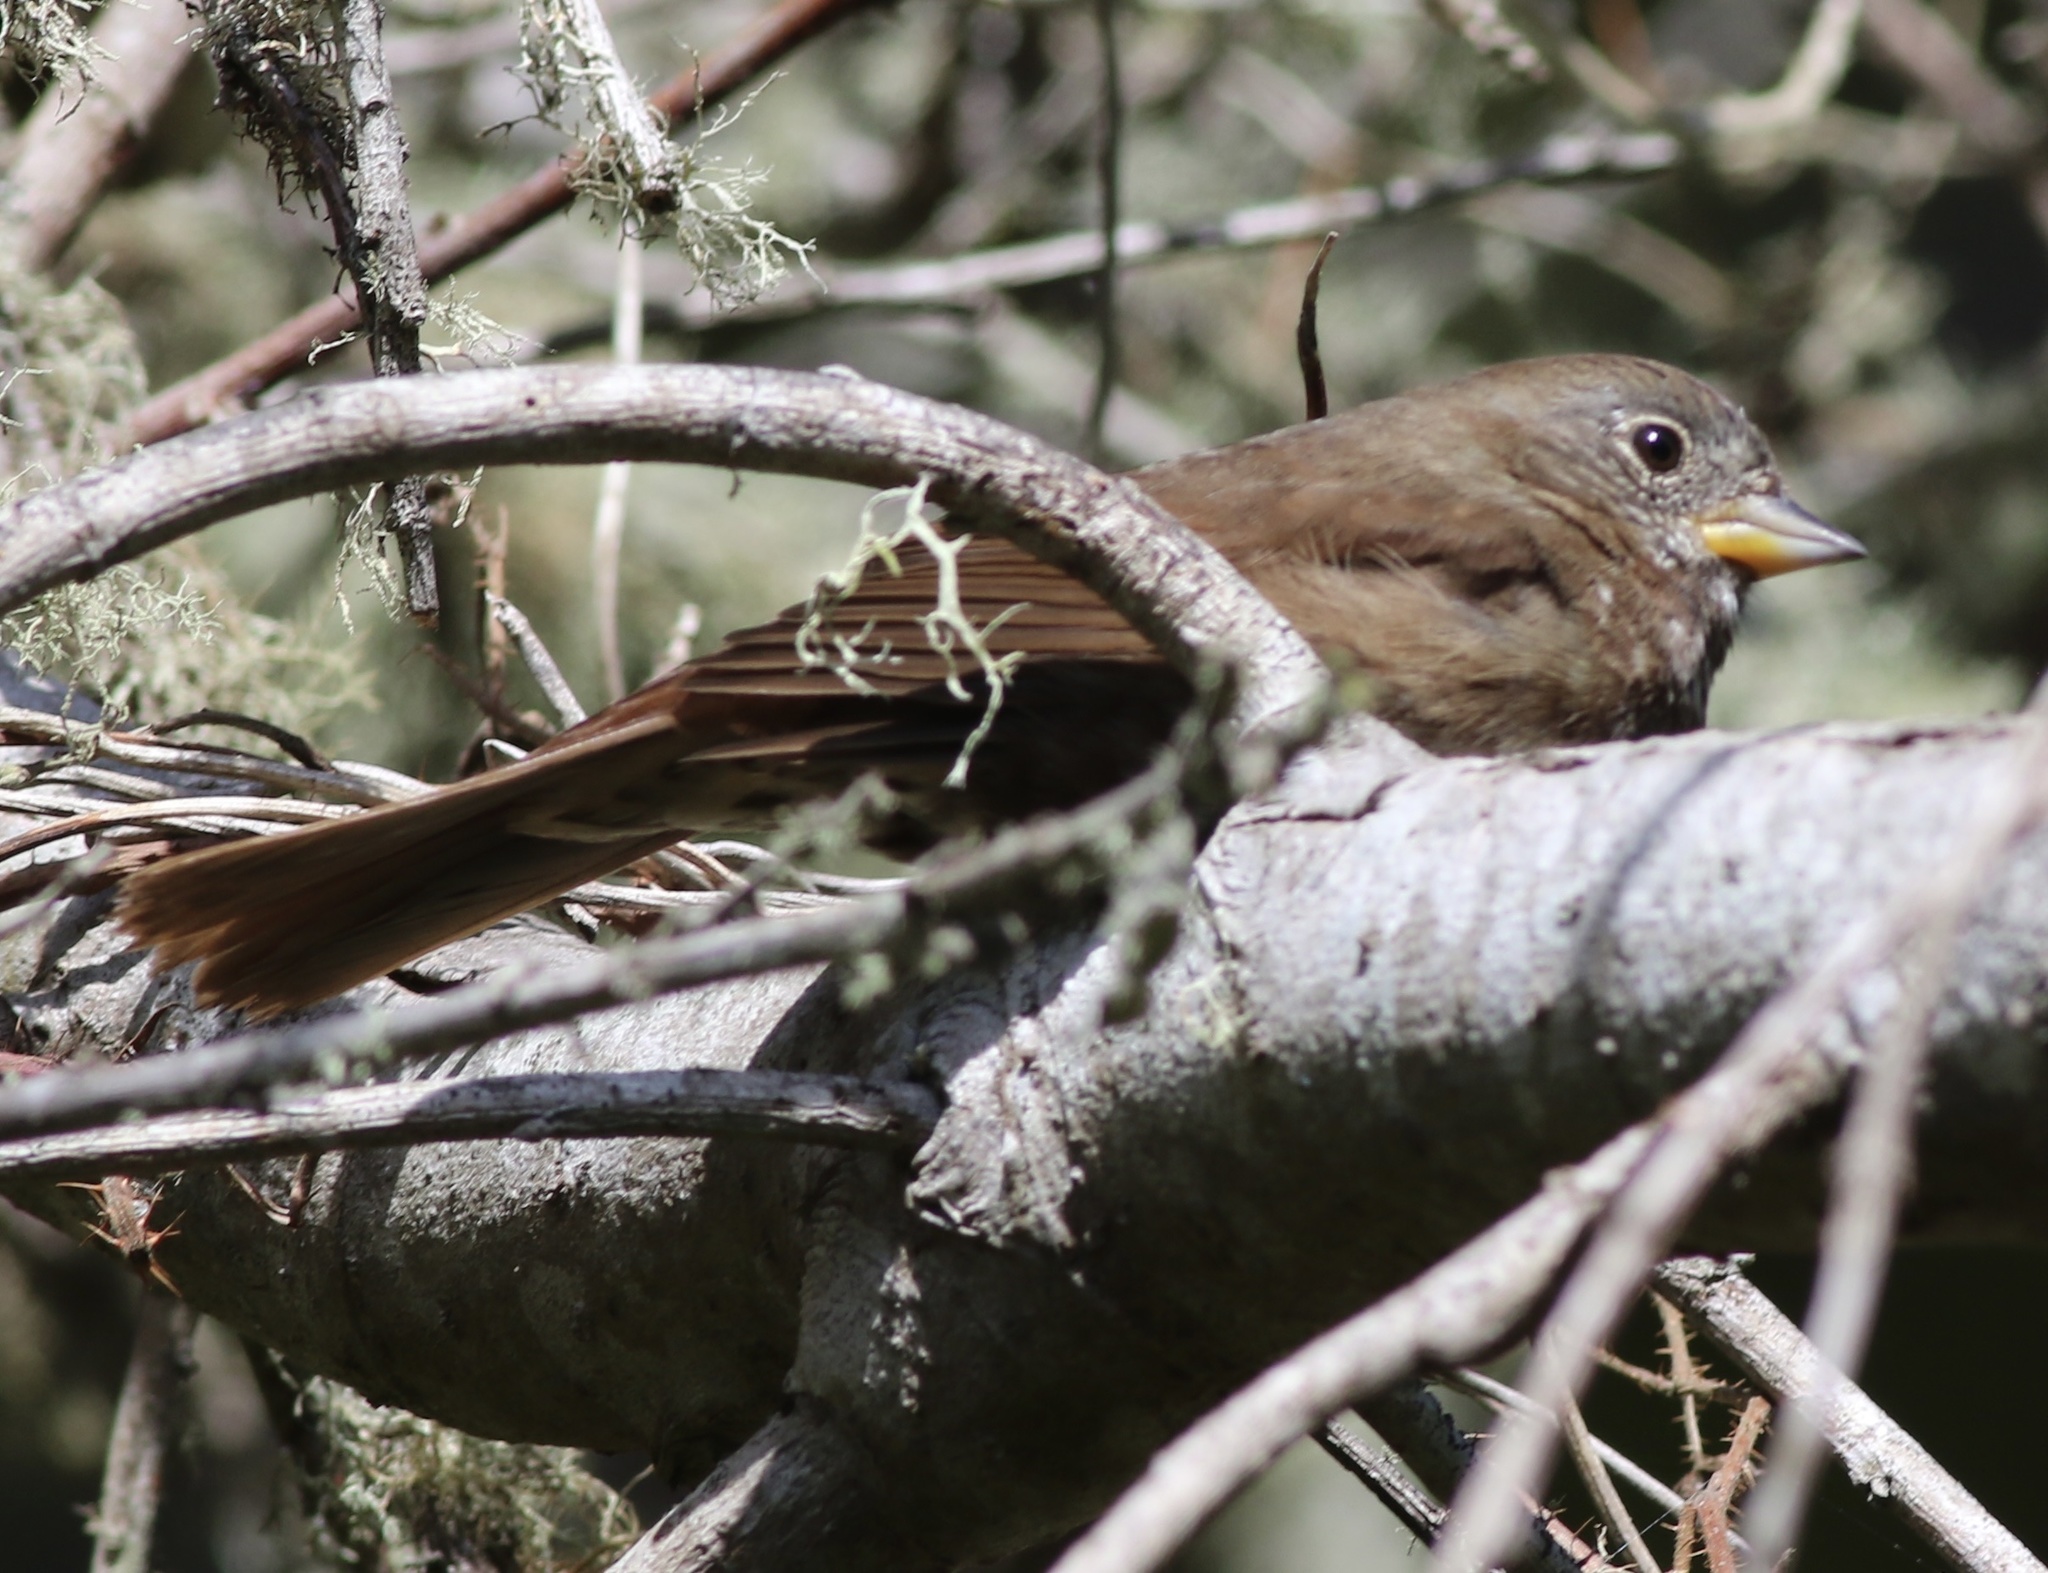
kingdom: Animalia
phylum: Chordata
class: Aves
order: Passeriformes
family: Passerellidae
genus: Passerella
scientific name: Passerella iliaca
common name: Fox sparrow
